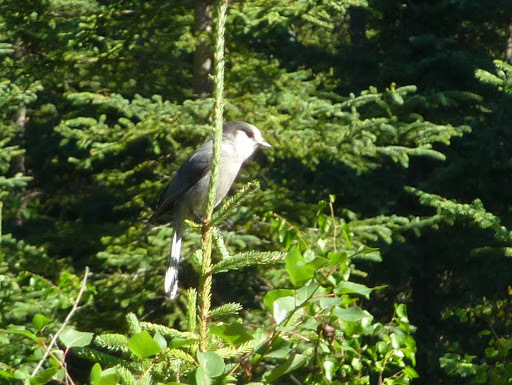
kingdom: Animalia
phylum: Chordata
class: Aves
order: Passeriformes
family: Corvidae
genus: Perisoreus
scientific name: Perisoreus canadensis
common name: Gray jay
